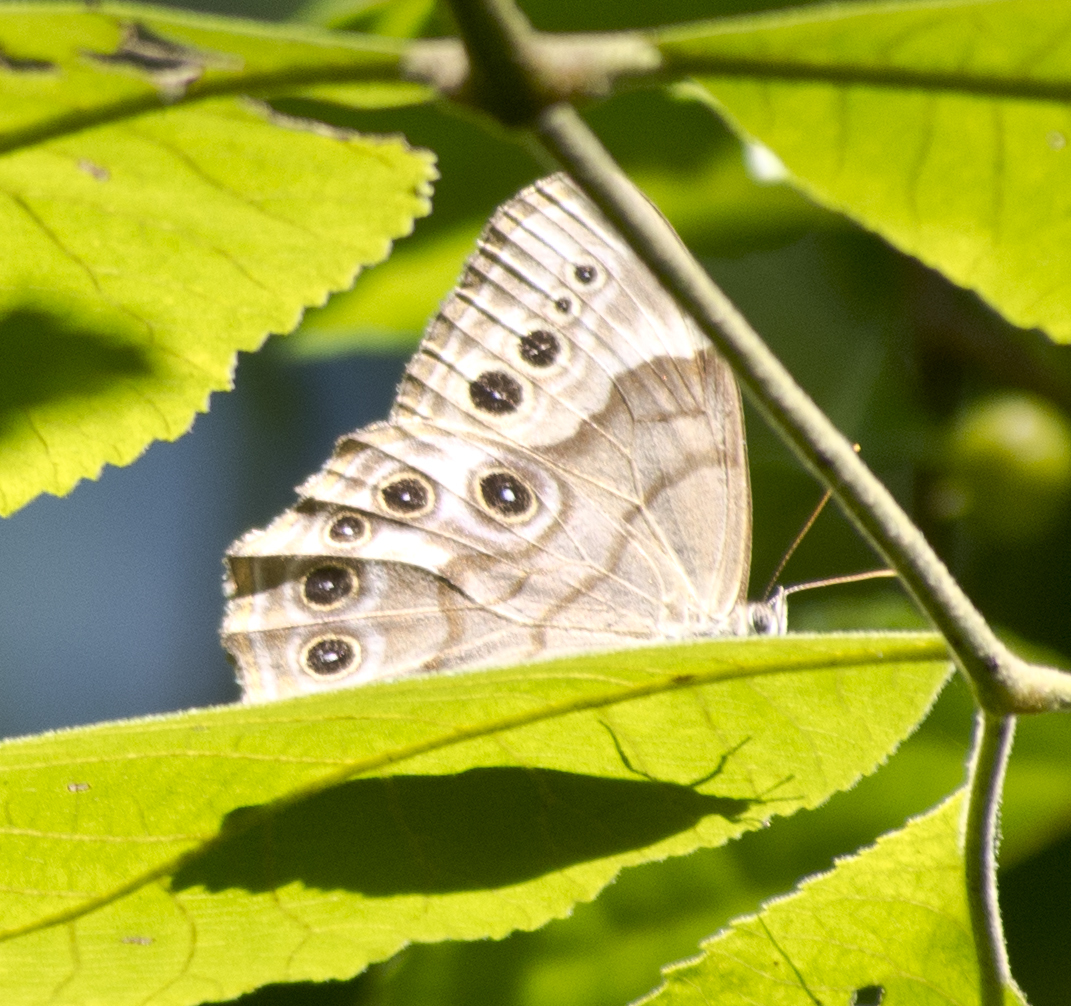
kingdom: Animalia
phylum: Arthropoda
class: Insecta
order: Lepidoptera
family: Nymphalidae
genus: Lethe
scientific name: Lethe anthedon
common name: Northern pearly-eye
